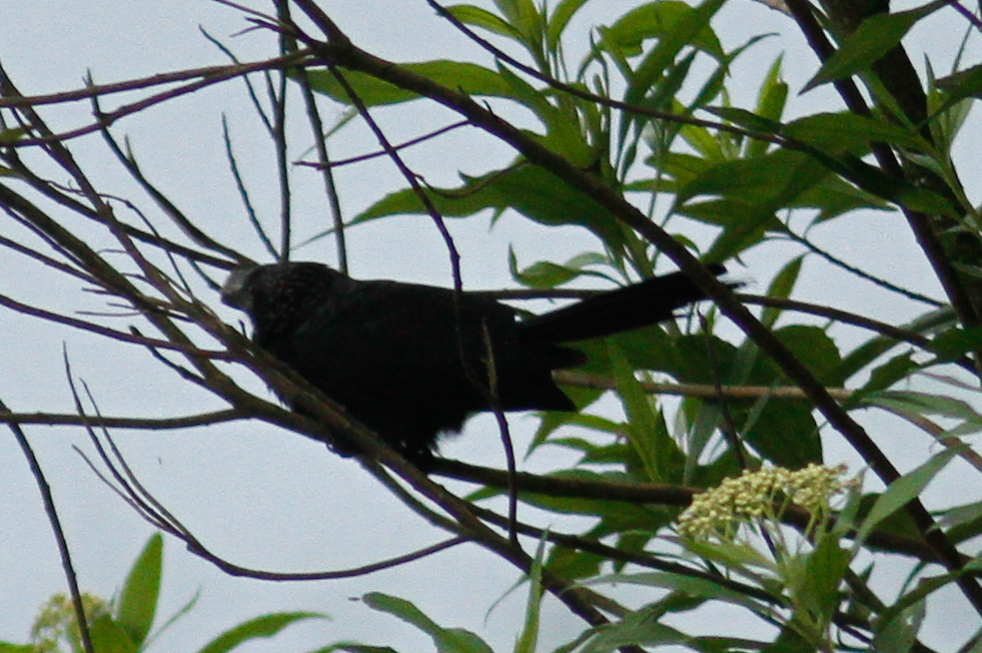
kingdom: Animalia
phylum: Chordata
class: Aves
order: Cuculiformes
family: Cuculidae
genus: Crotophaga
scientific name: Crotophaga ani
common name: Smooth-billed ani
